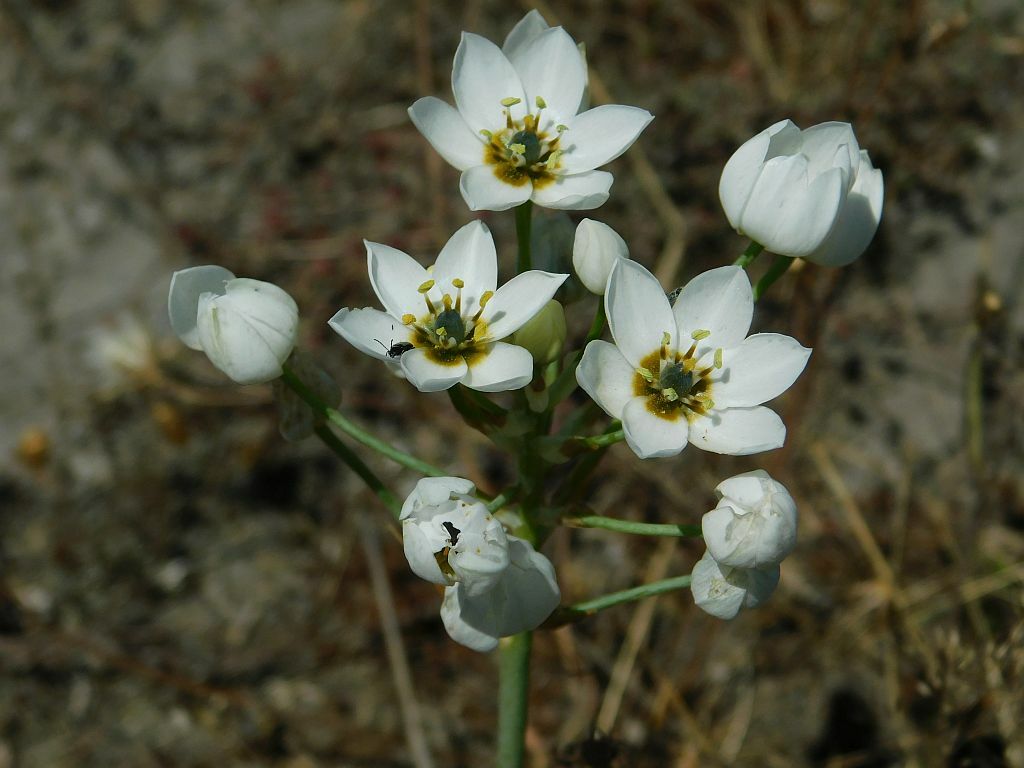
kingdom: Plantae
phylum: Tracheophyta
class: Liliopsida
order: Asparagales
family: Asparagaceae
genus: Ornithogalum
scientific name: Ornithogalum thyrsoides
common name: Chincherinchee
